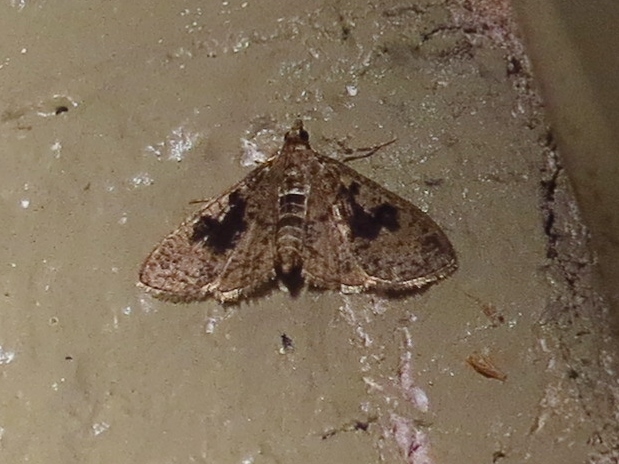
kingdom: Animalia
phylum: Arthropoda
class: Insecta
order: Lepidoptera
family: Crambidae
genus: Palpita
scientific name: Palpita magniferalis
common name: Splendid palpita moth
